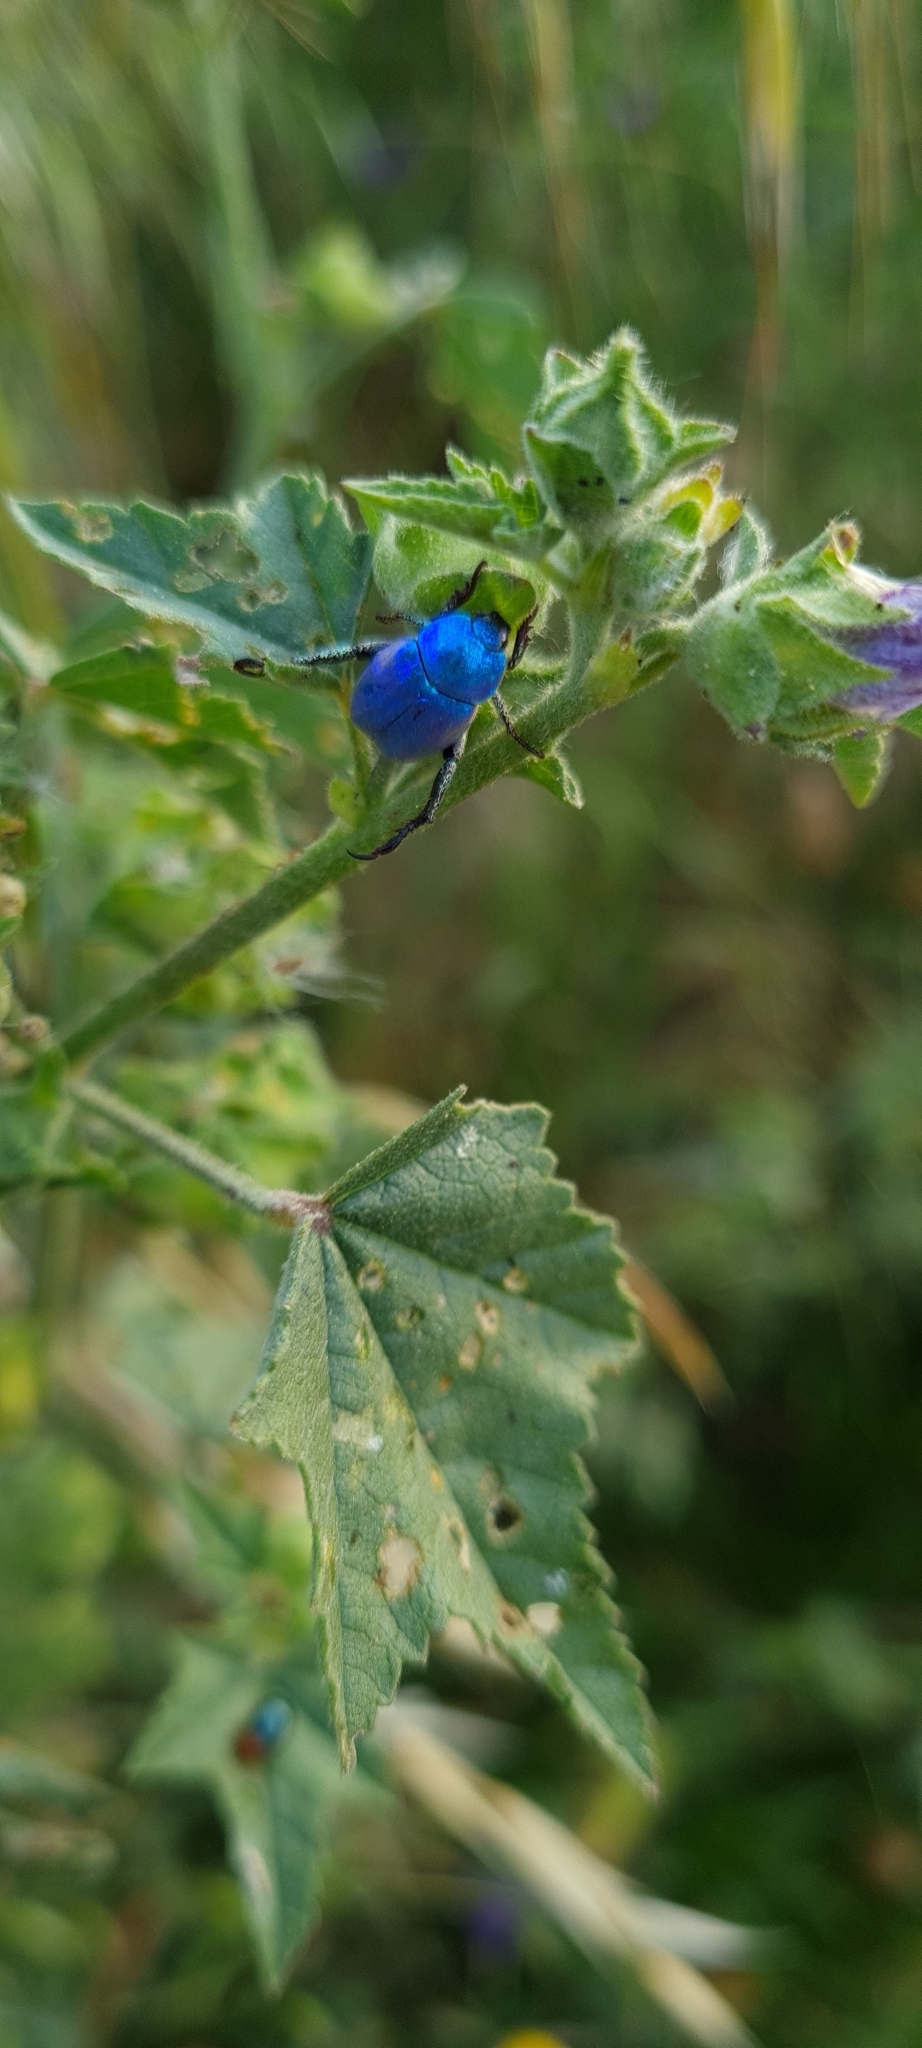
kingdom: Animalia
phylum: Arthropoda
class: Insecta
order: Coleoptera
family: Scarabaeidae
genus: Hoplia
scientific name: Hoplia coerulea
